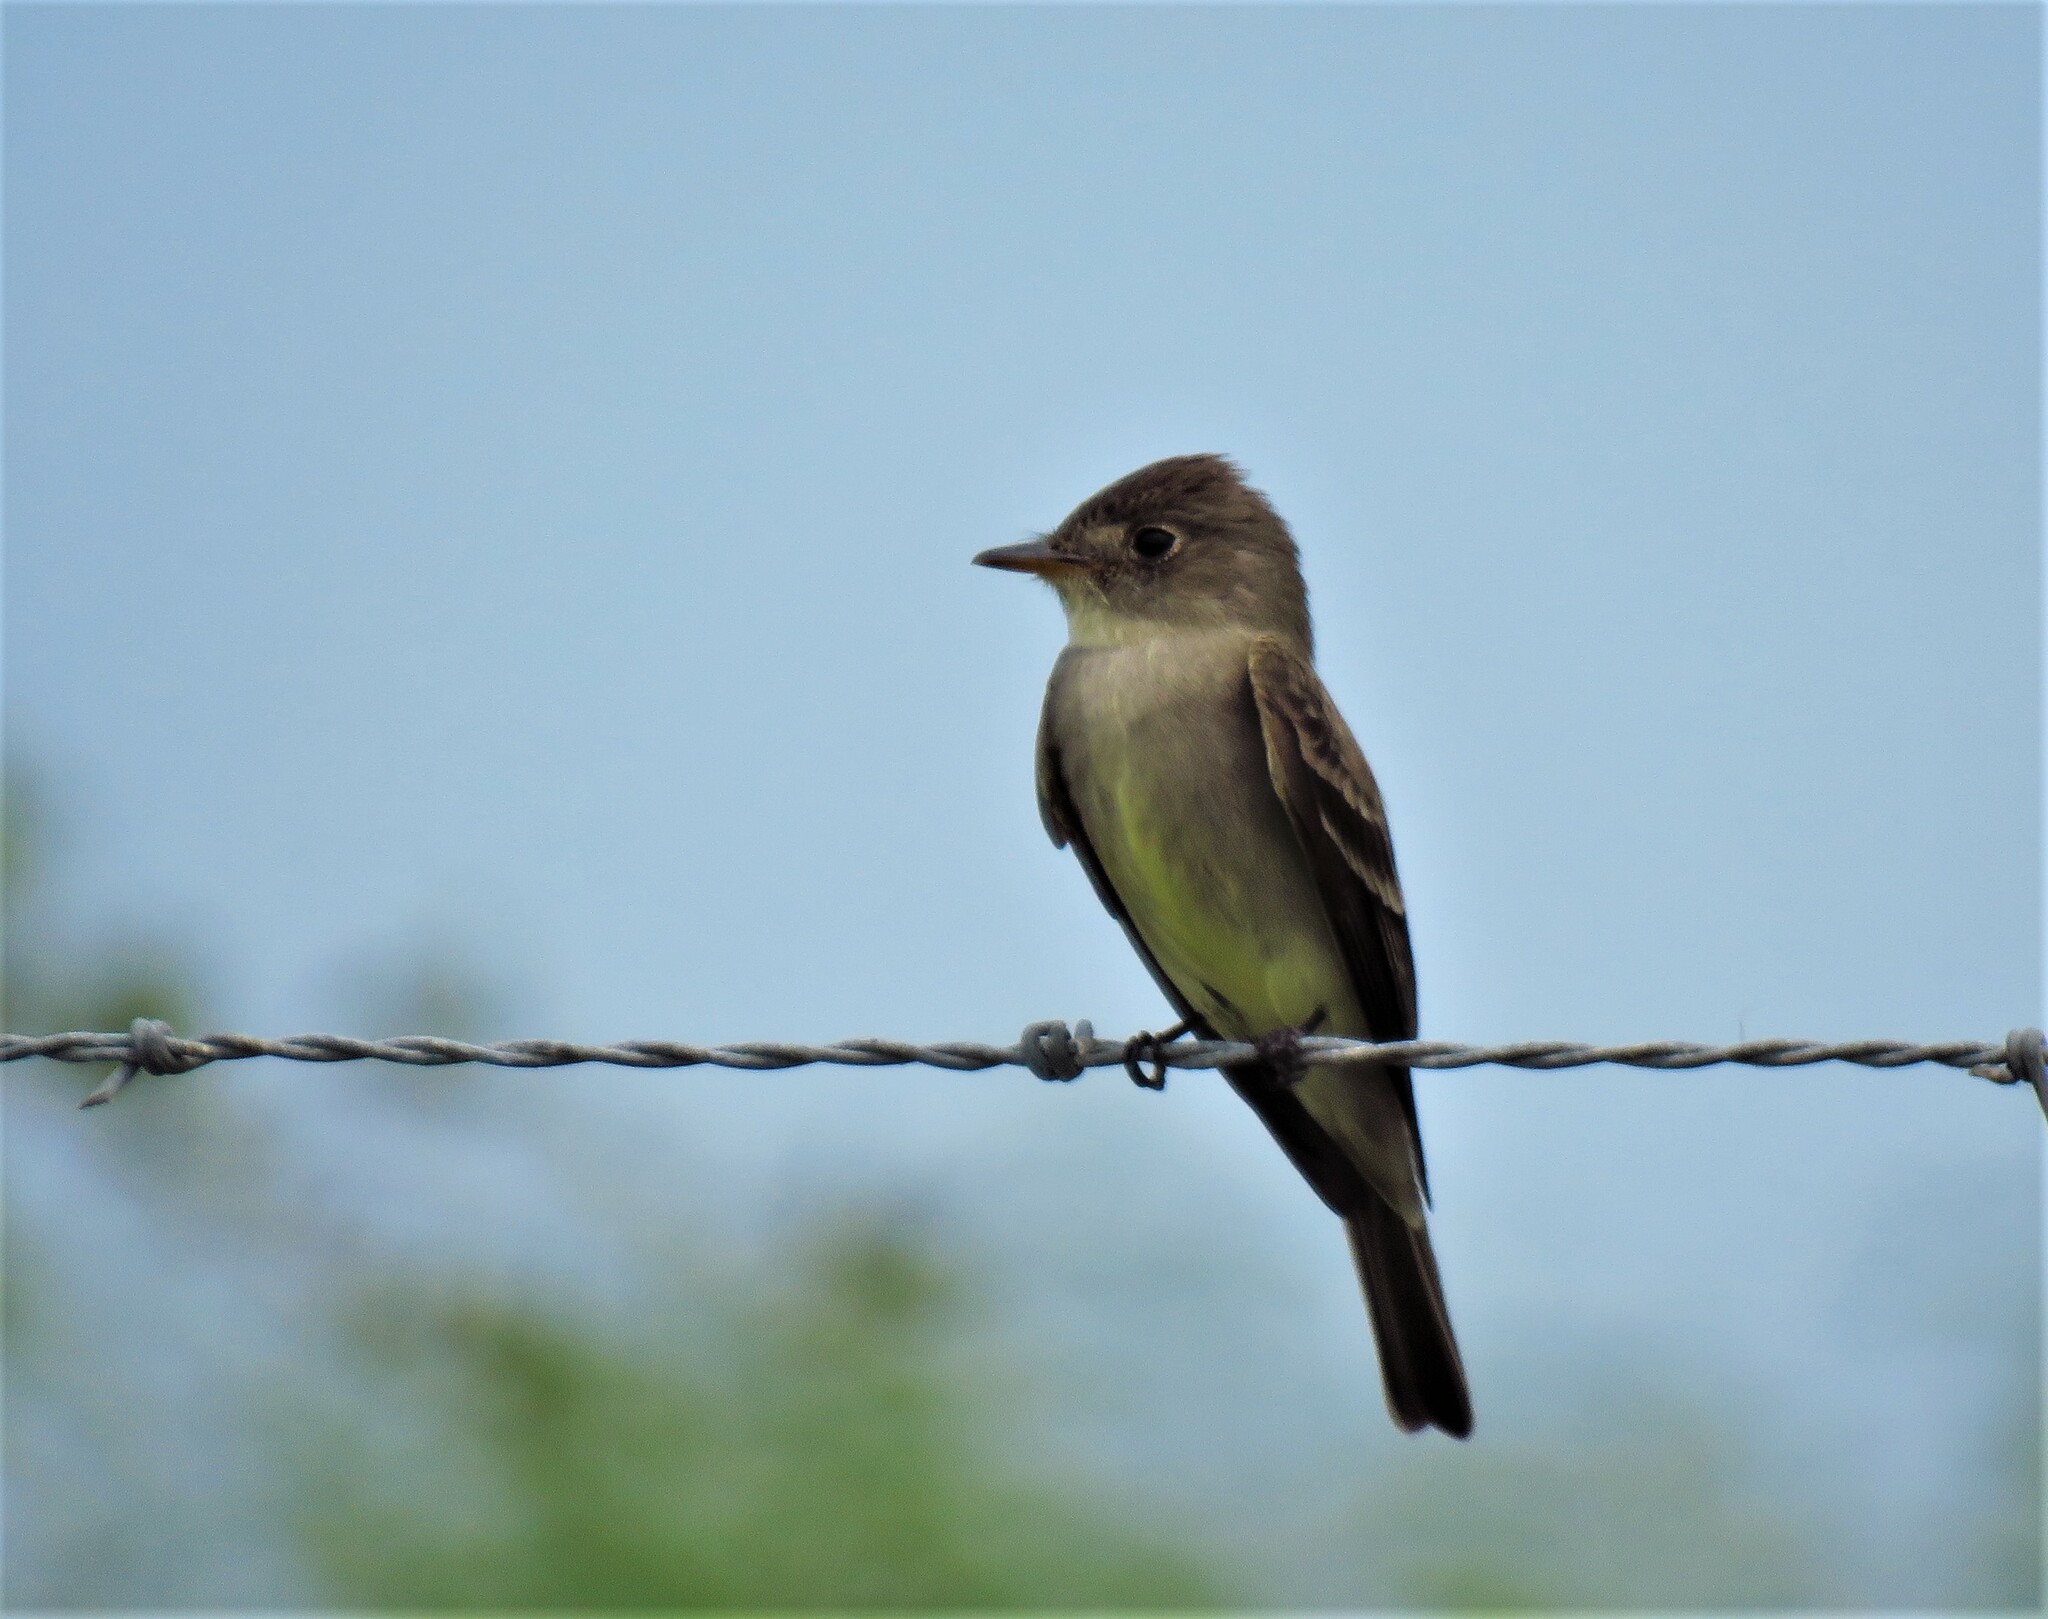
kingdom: Animalia
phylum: Chordata
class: Aves
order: Passeriformes
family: Tyrannidae
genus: Contopus
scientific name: Contopus virens
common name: Eastern wood-pewee
